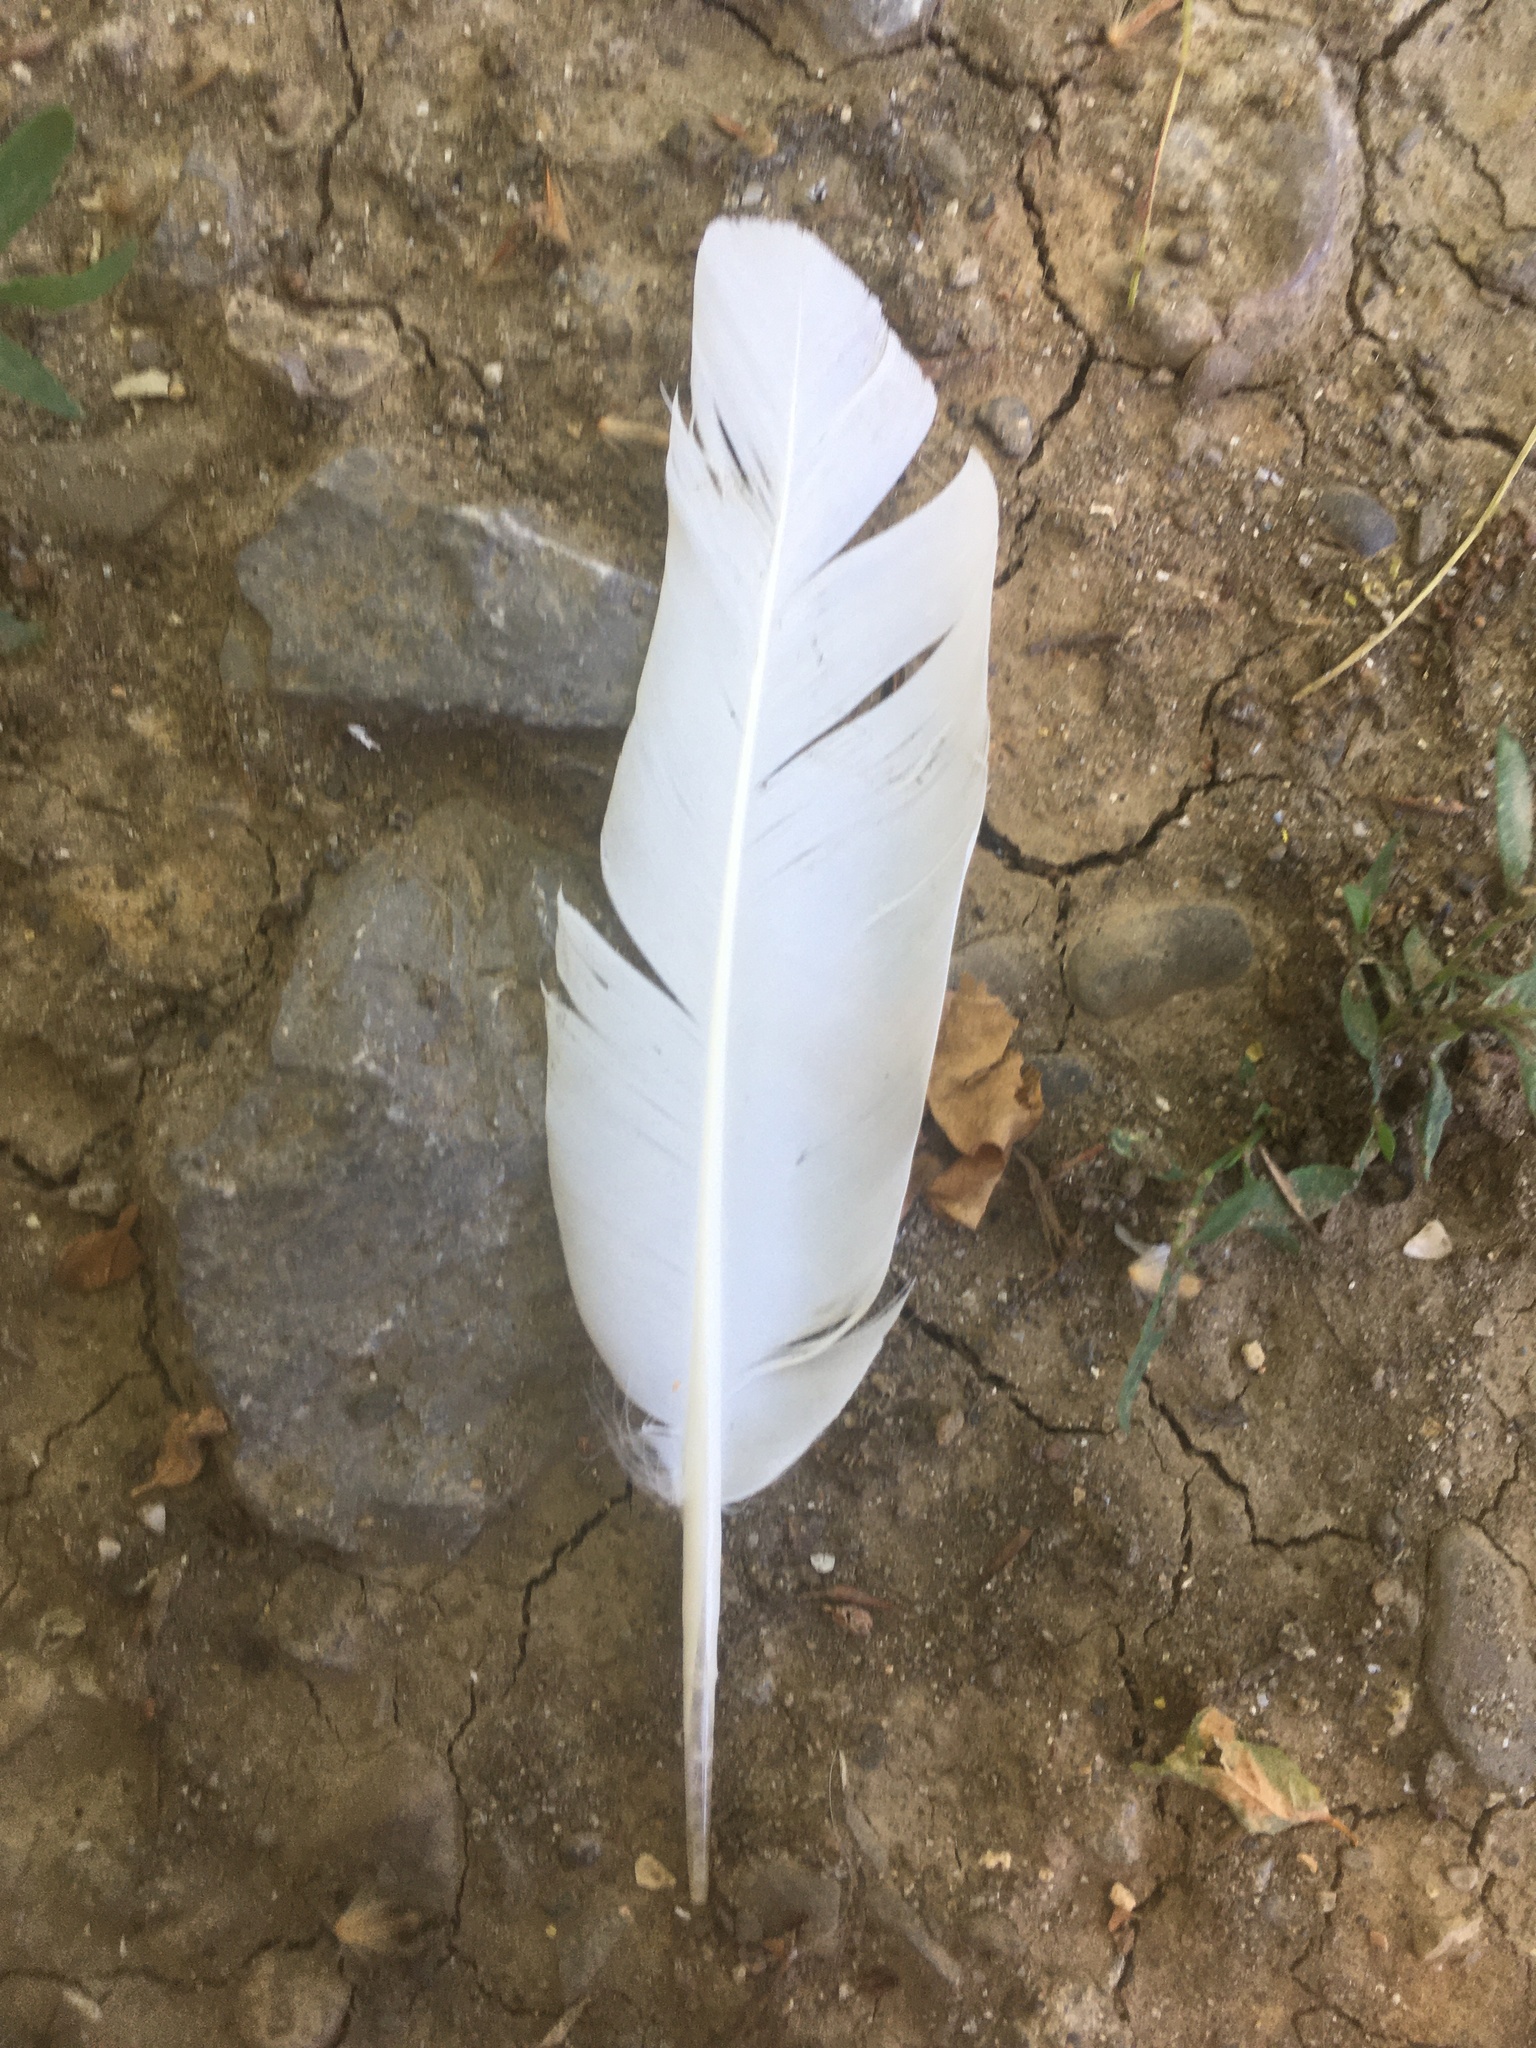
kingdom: Animalia
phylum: Chordata
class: Aves
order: Columbiformes
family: Columbidae
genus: Columba
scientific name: Columba livia
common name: Rock pigeon
